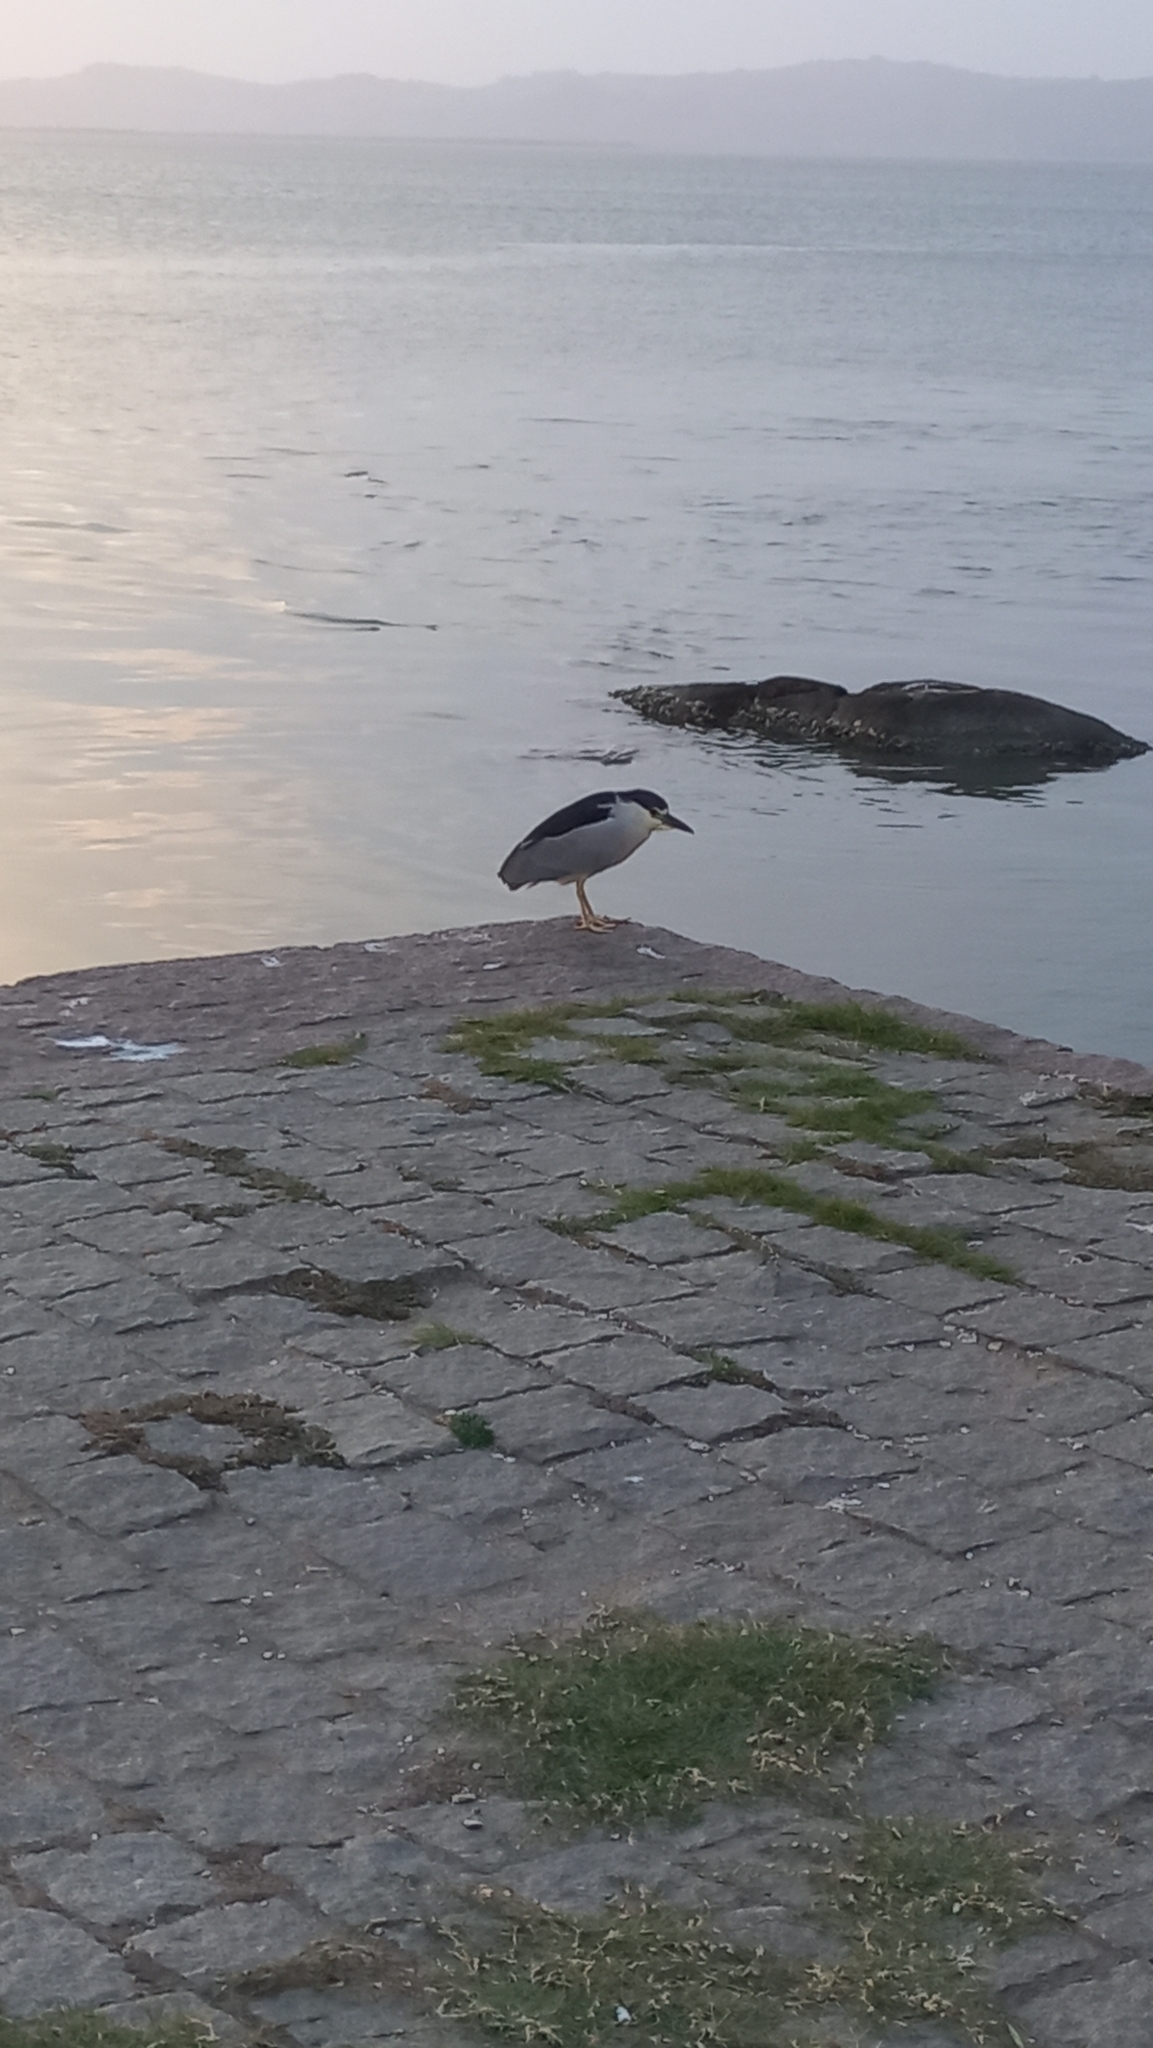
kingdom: Animalia
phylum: Chordata
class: Aves
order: Pelecaniformes
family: Ardeidae
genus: Nycticorax
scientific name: Nycticorax nycticorax
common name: Black-crowned night heron
